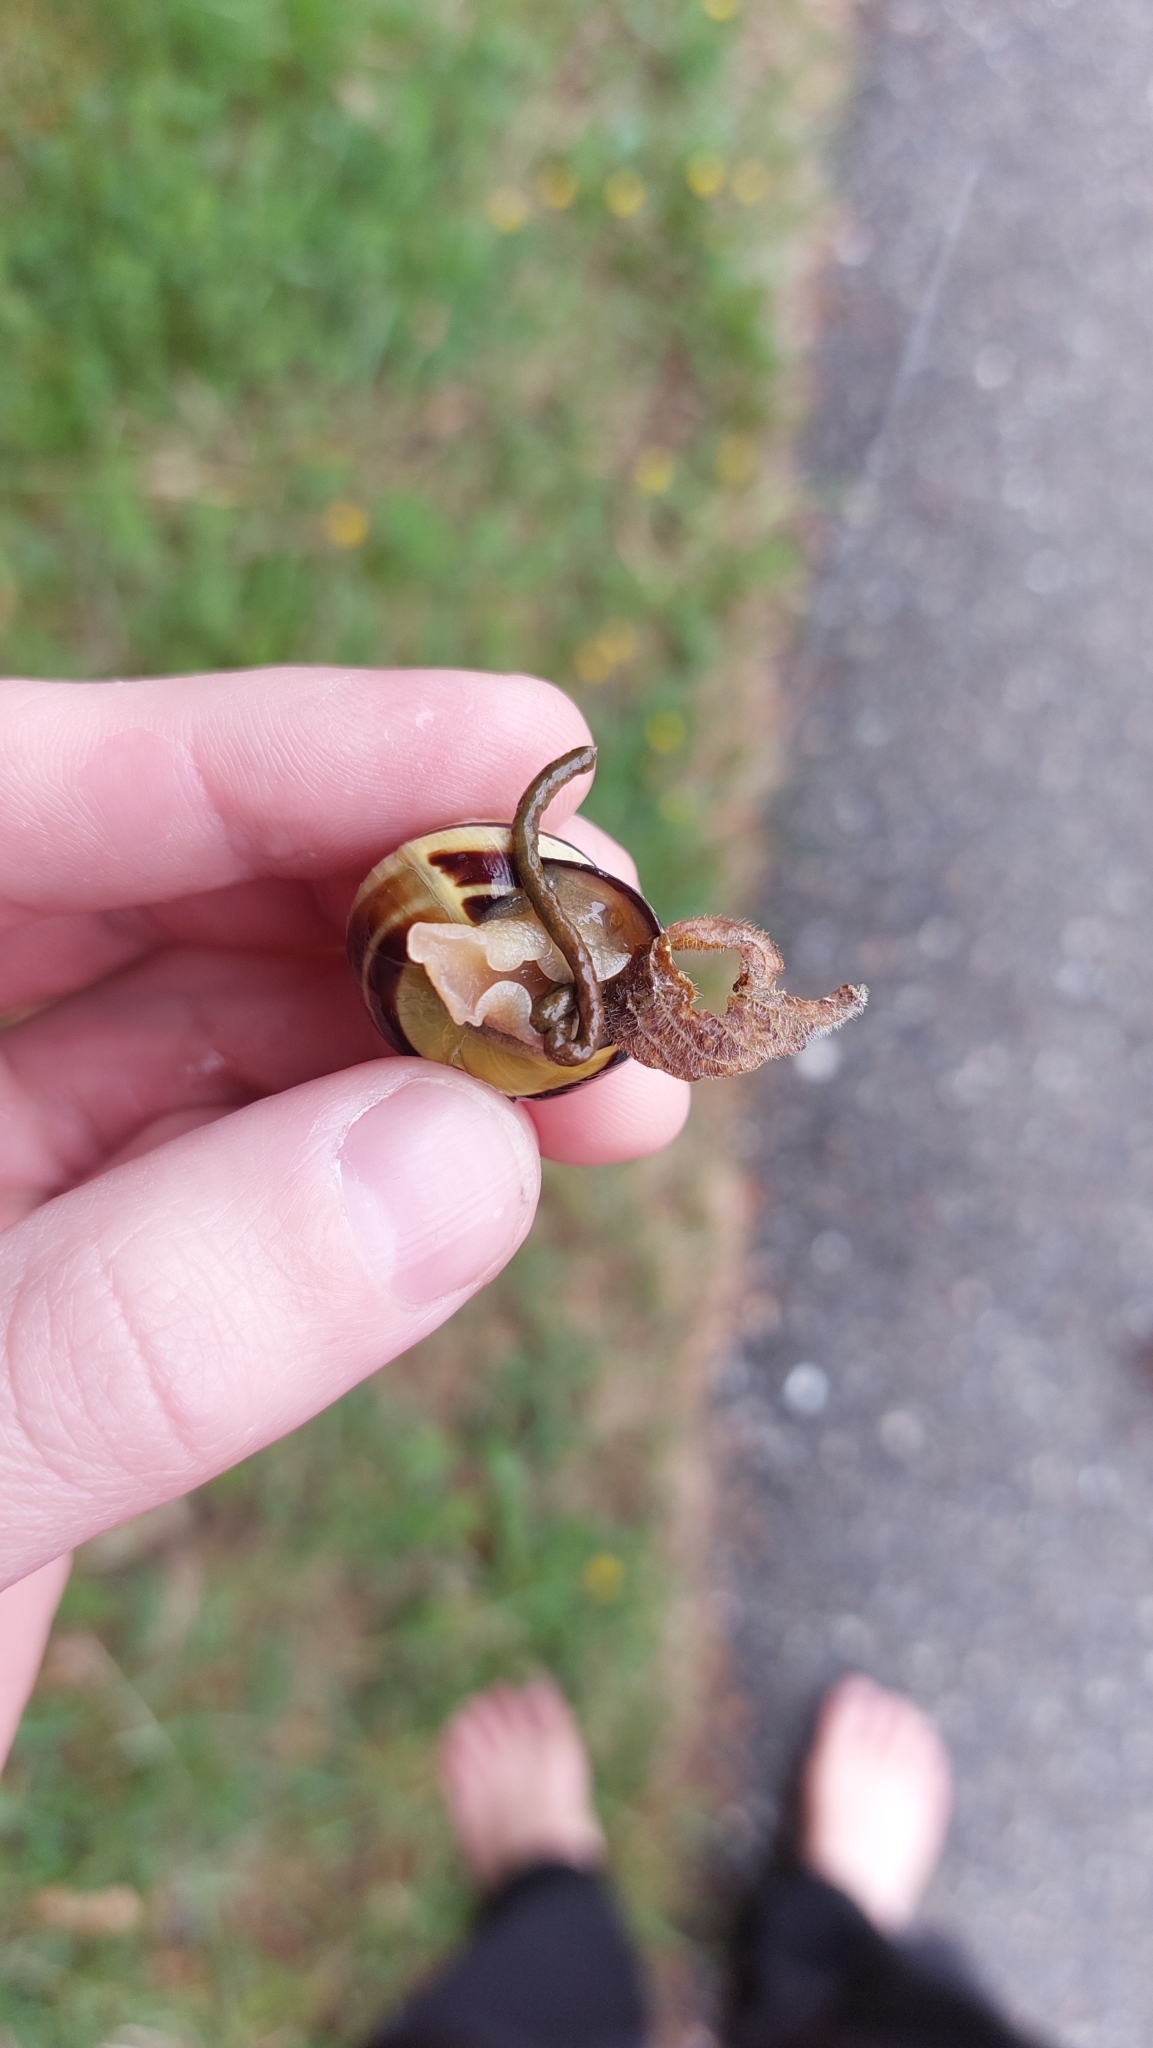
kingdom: Animalia
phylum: Mollusca
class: Gastropoda
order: Stylommatophora
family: Helicidae
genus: Cepaea
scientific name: Cepaea nemoralis
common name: Grovesnail
